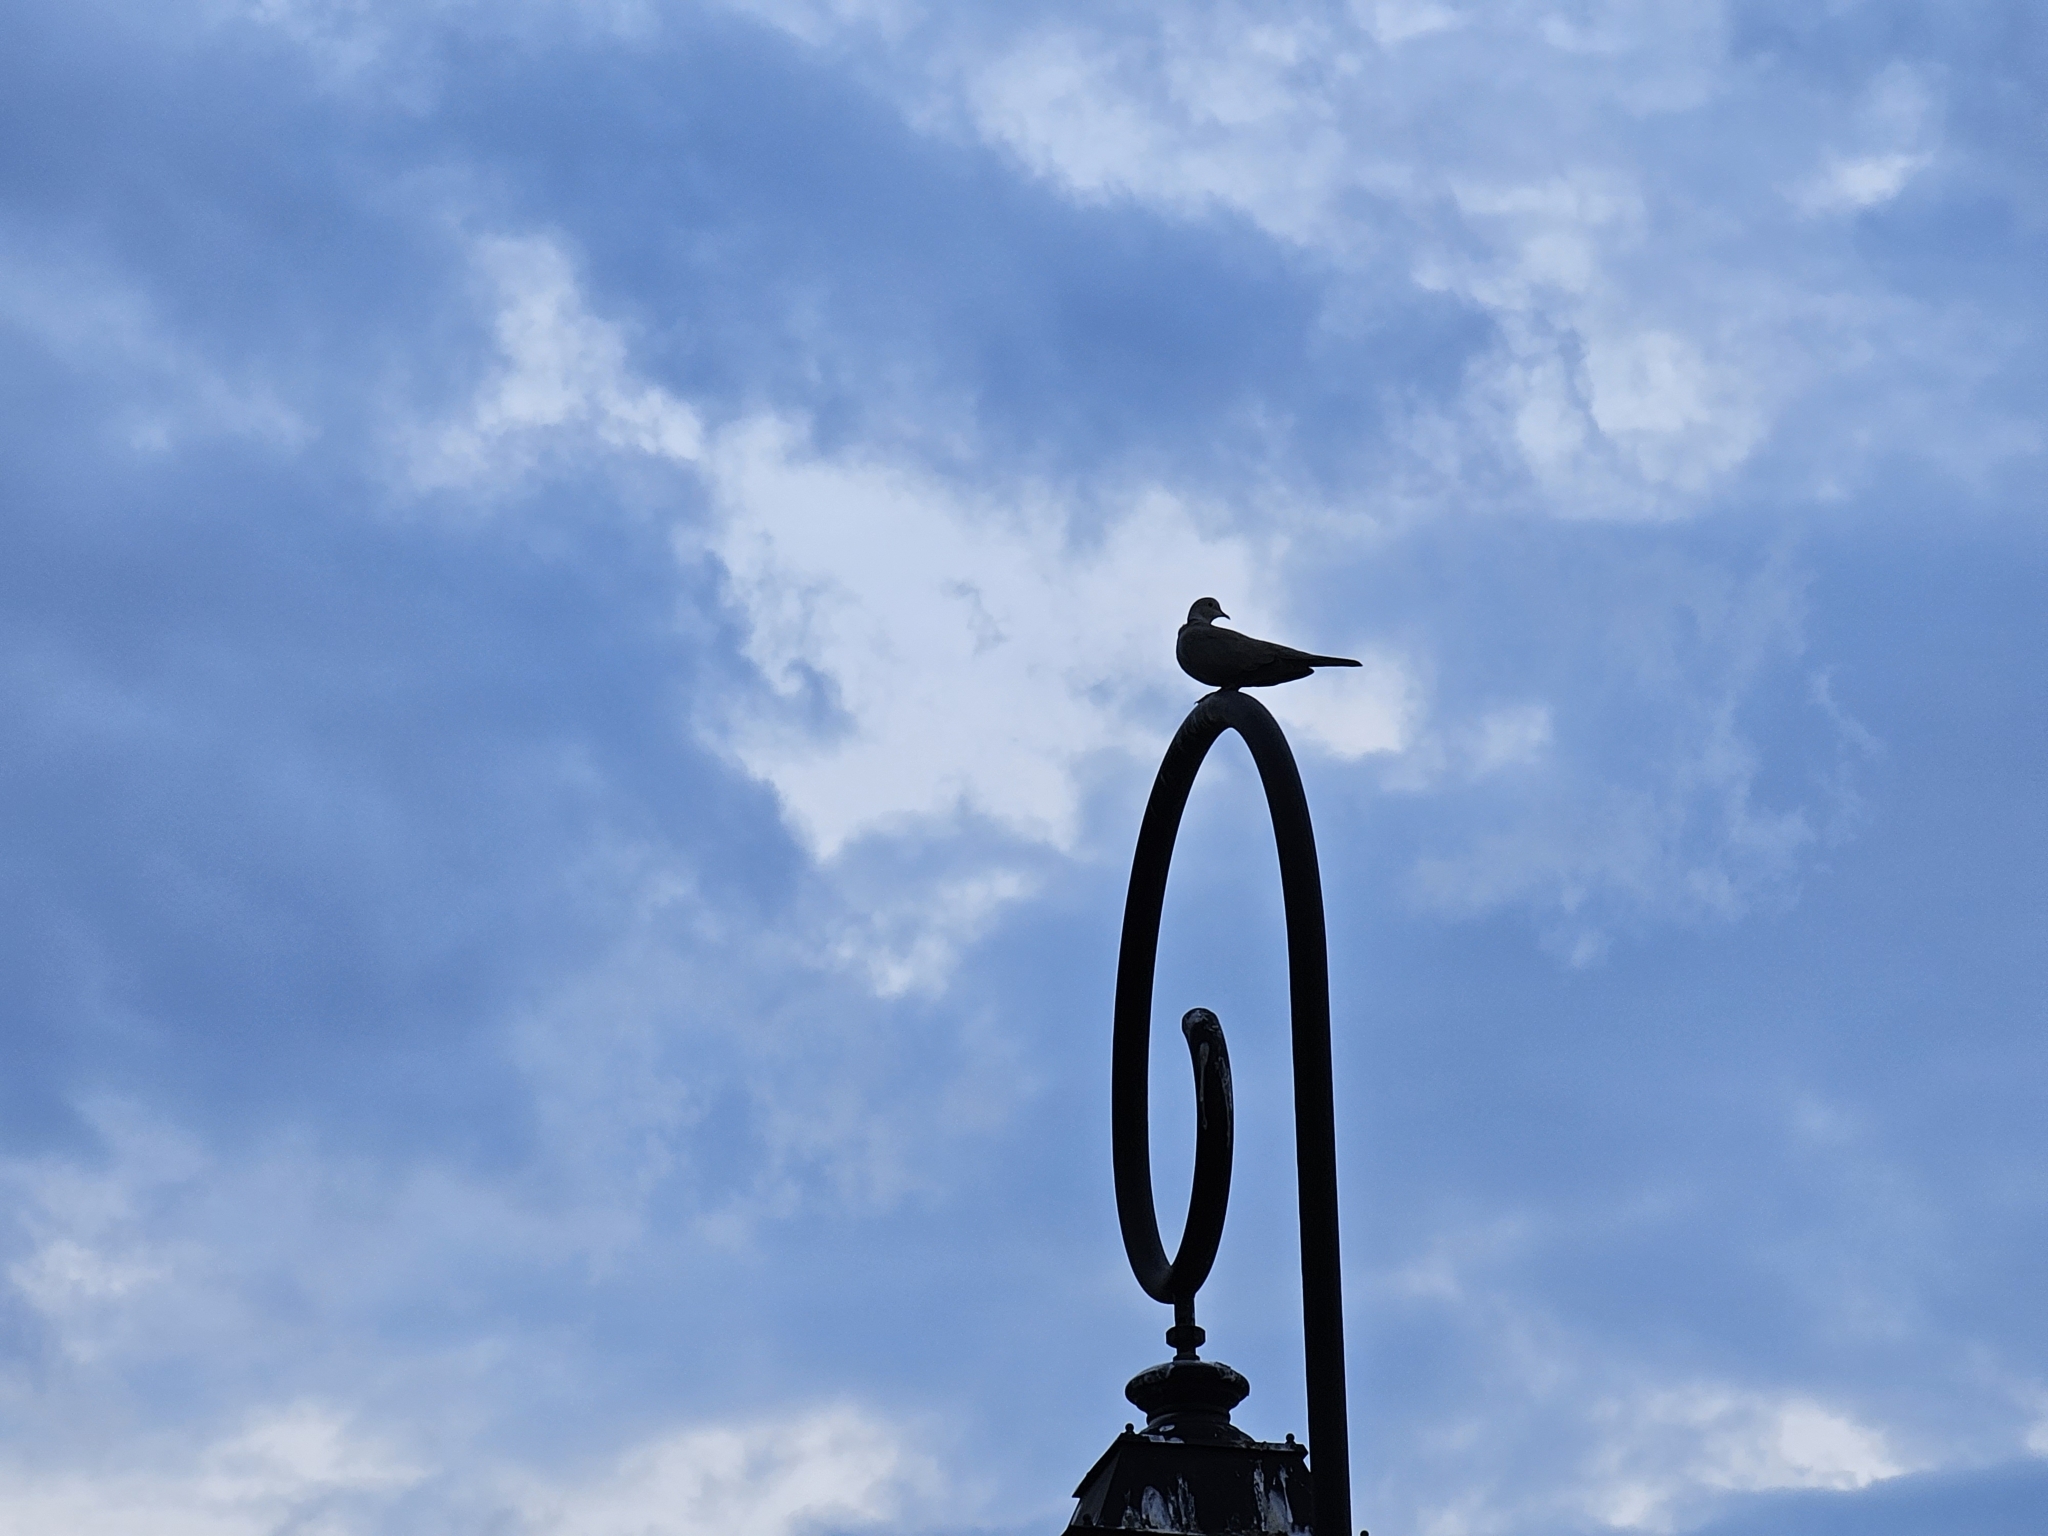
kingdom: Animalia
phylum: Chordata
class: Aves
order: Columbiformes
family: Columbidae
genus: Streptopelia
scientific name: Streptopelia decaocto
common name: Eurasian collared dove
